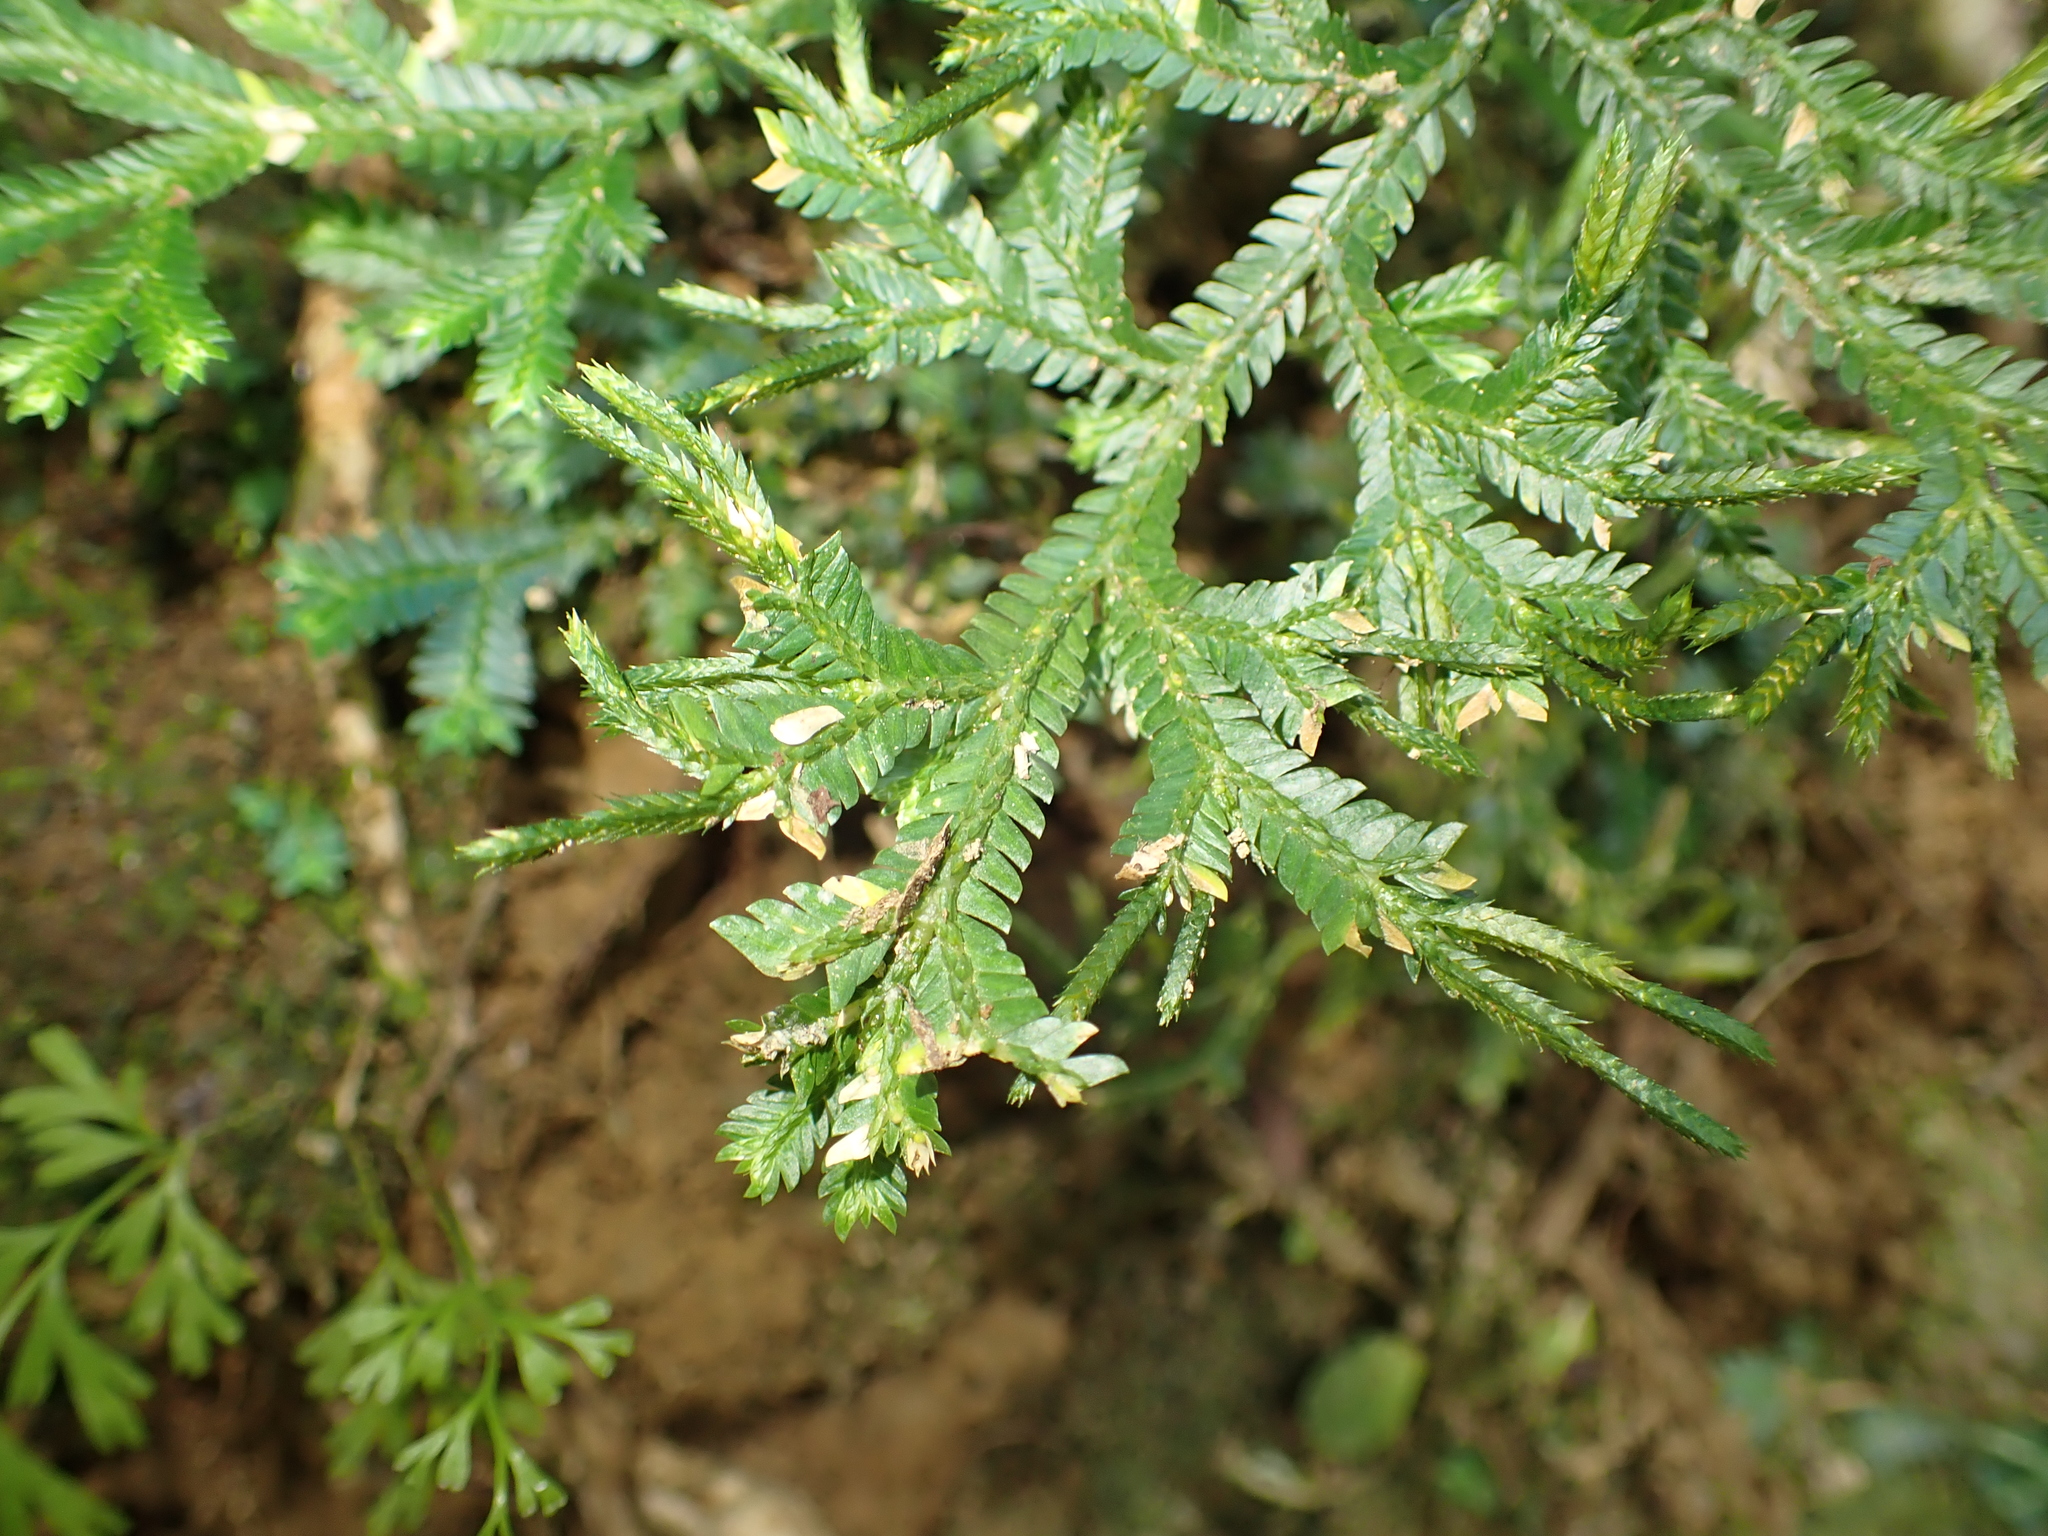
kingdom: Plantae
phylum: Tracheophyta
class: Lycopodiopsida
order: Selaginellales
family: Selaginellaceae
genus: Selaginella
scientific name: Selaginella doederleinii
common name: Greater selaginella
